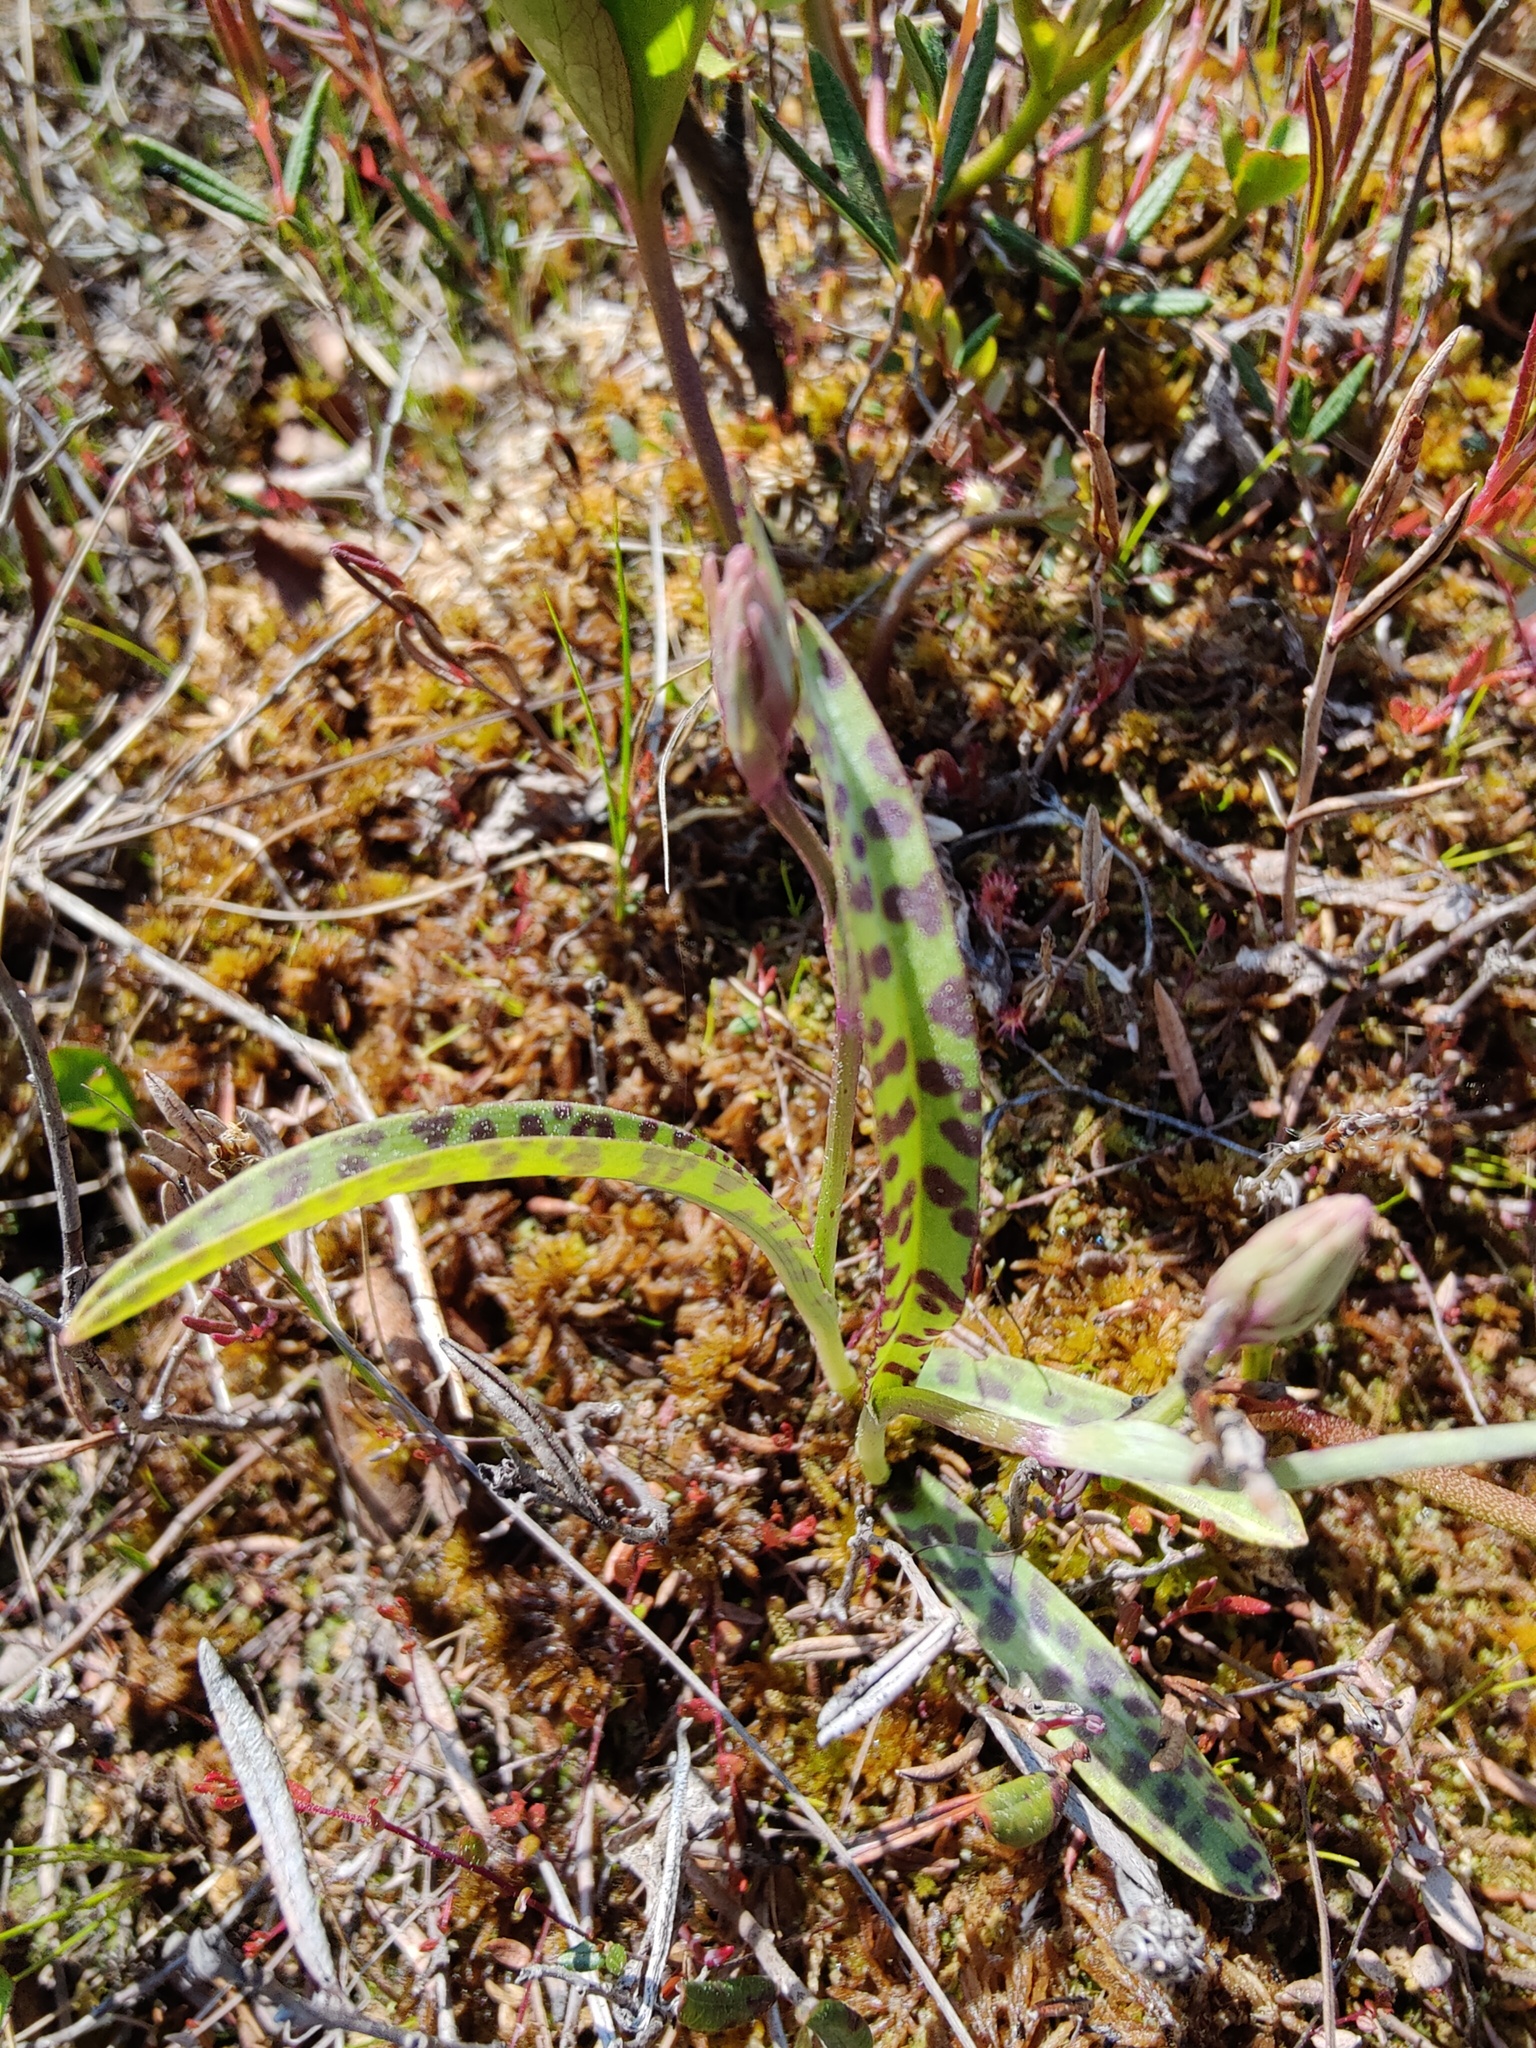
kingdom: Plantae
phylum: Tracheophyta
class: Liliopsida
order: Asparagales
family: Orchidaceae
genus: Dactylorhiza
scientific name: Dactylorhiza maculata
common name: Heath spotted-orchid
